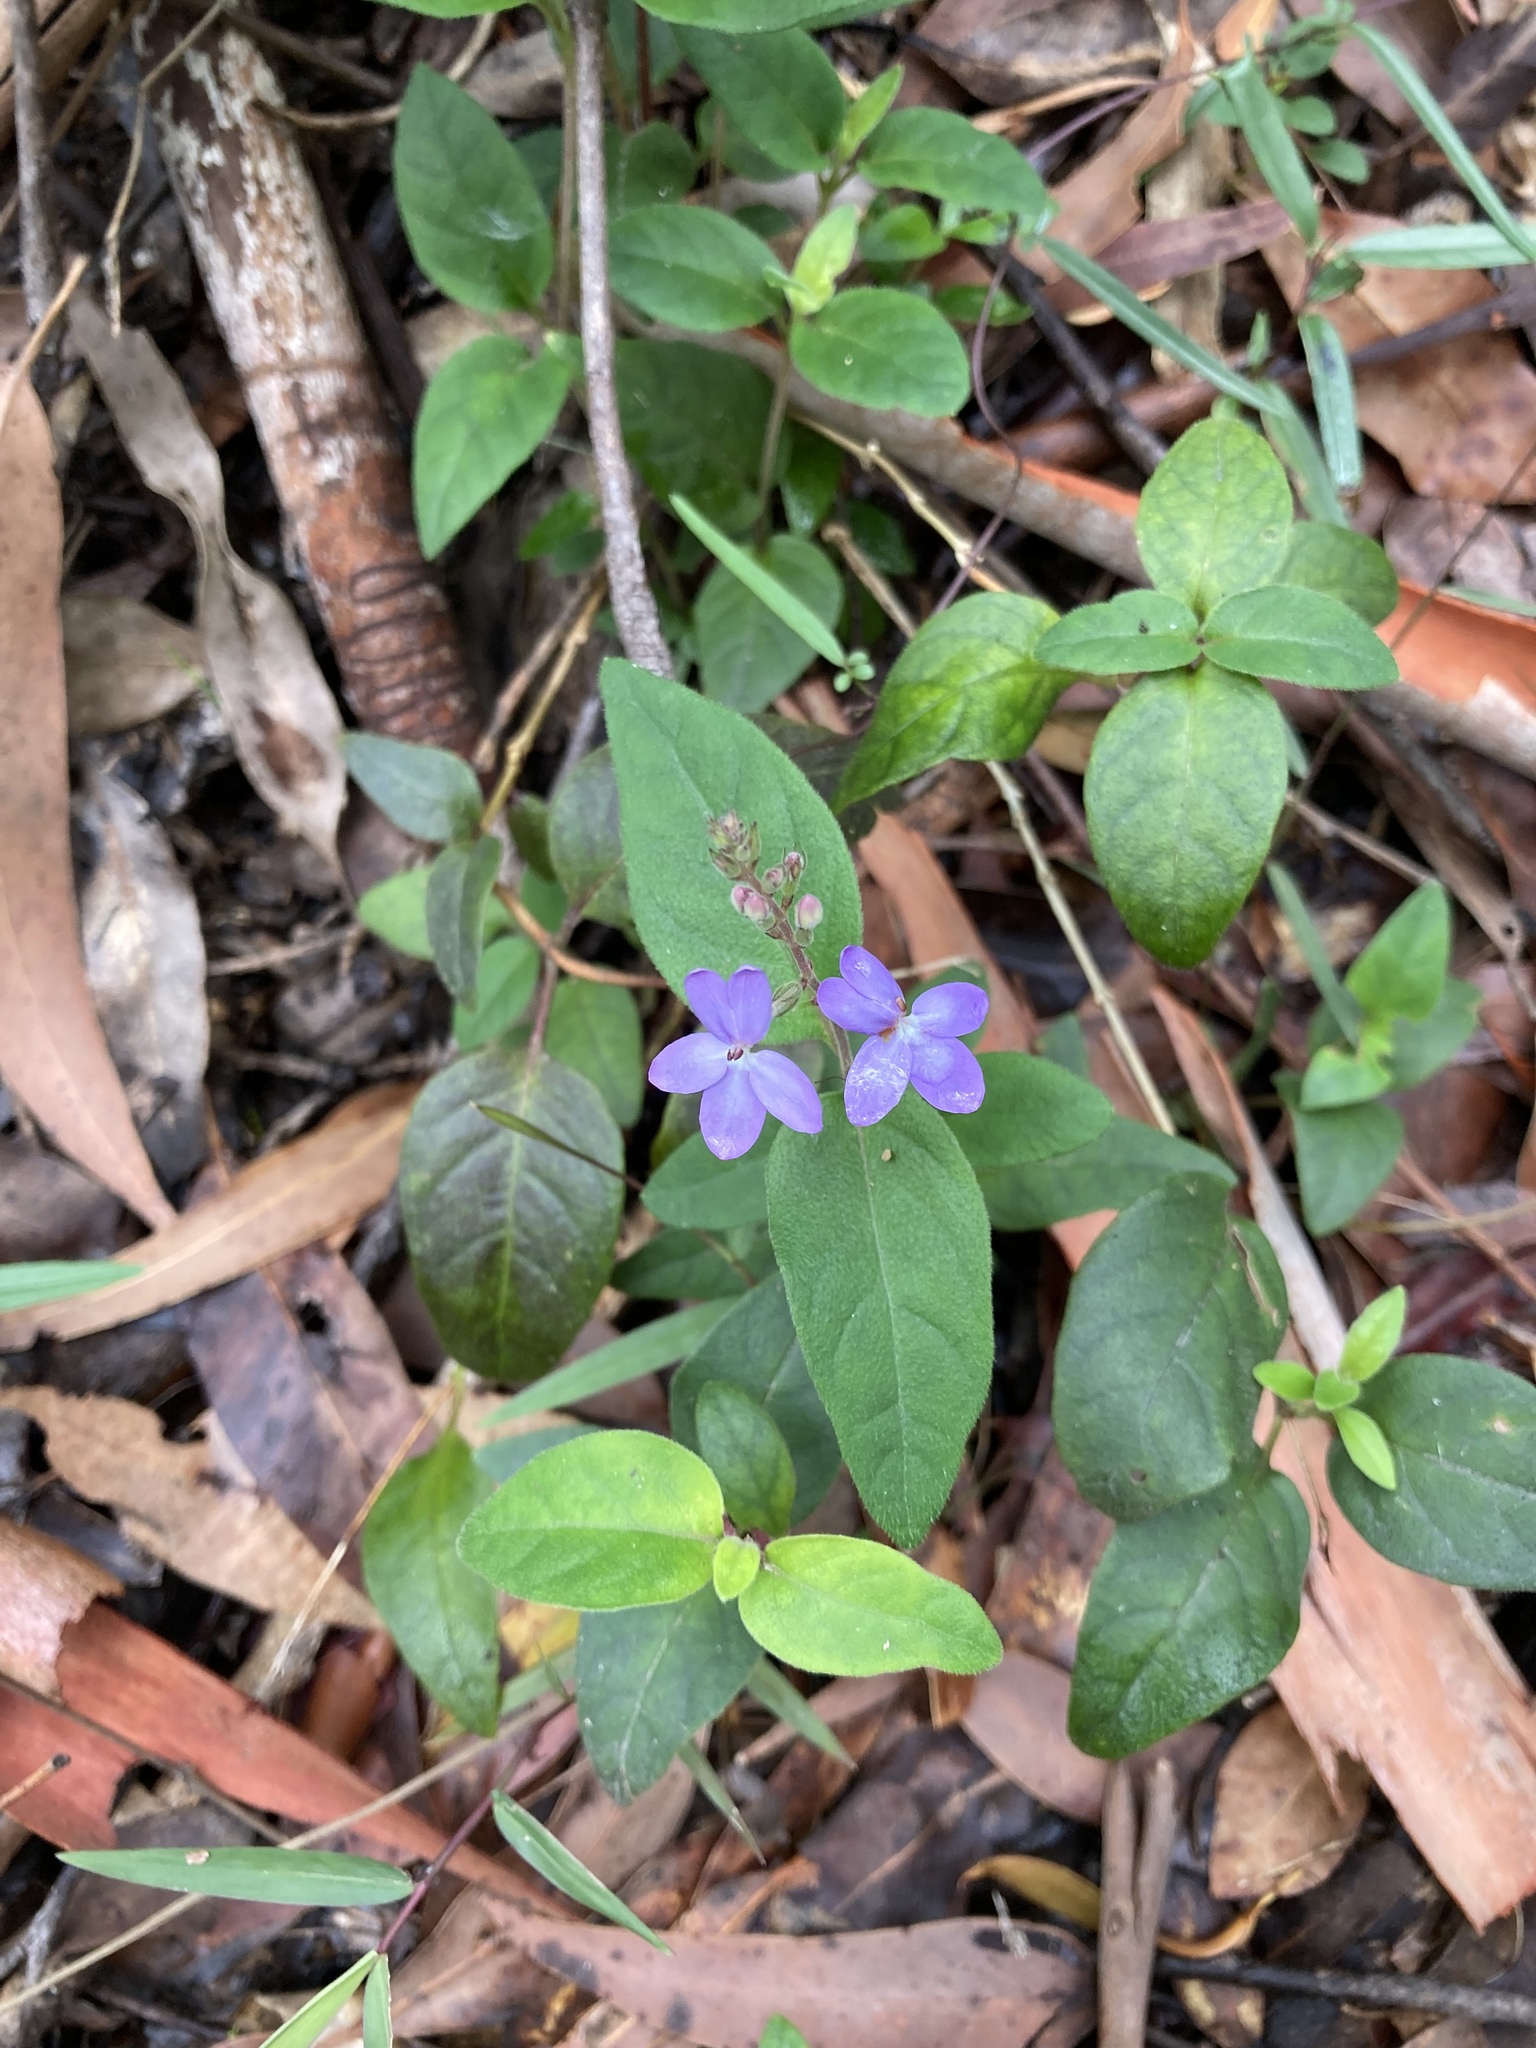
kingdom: Plantae
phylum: Tracheophyta
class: Magnoliopsida
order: Lamiales
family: Acanthaceae
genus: Pseuderanthemum
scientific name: Pseuderanthemum variabile
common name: Night and afternoon
